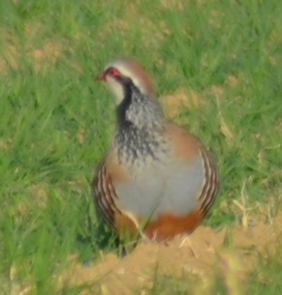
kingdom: Animalia
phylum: Chordata
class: Aves
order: Galliformes
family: Phasianidae
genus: Alectoris
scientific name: Alectoris rufa
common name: Red-legged partridge
